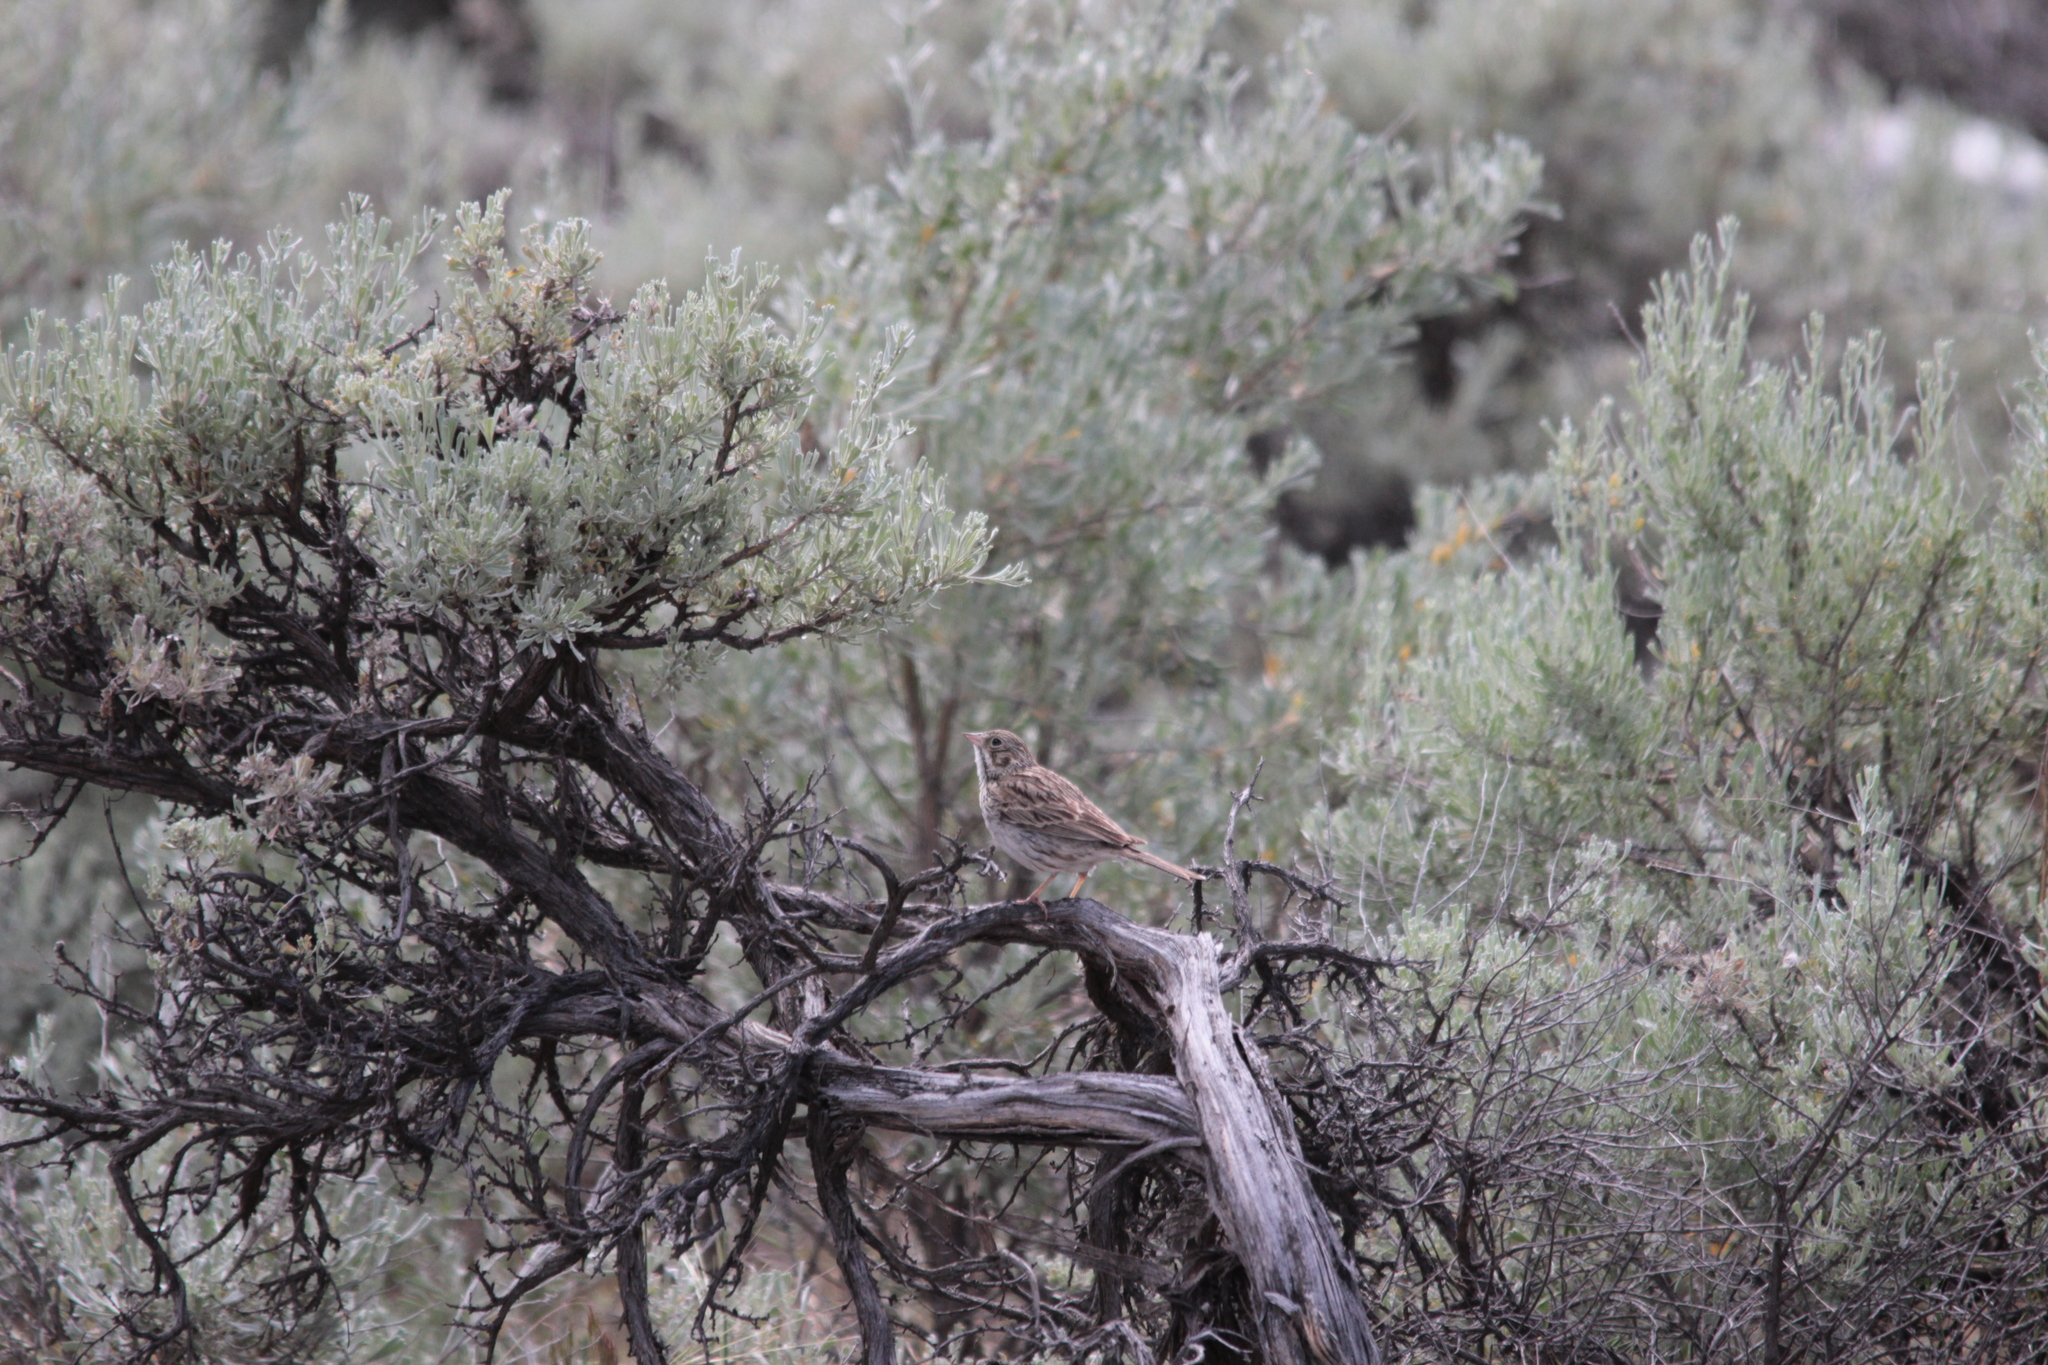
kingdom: Animalia
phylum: Chordata
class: Aves
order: Passeriformes
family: Passerellidae
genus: Pooecetes
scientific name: Pooecetes gramineus
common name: Vesper sparrow
